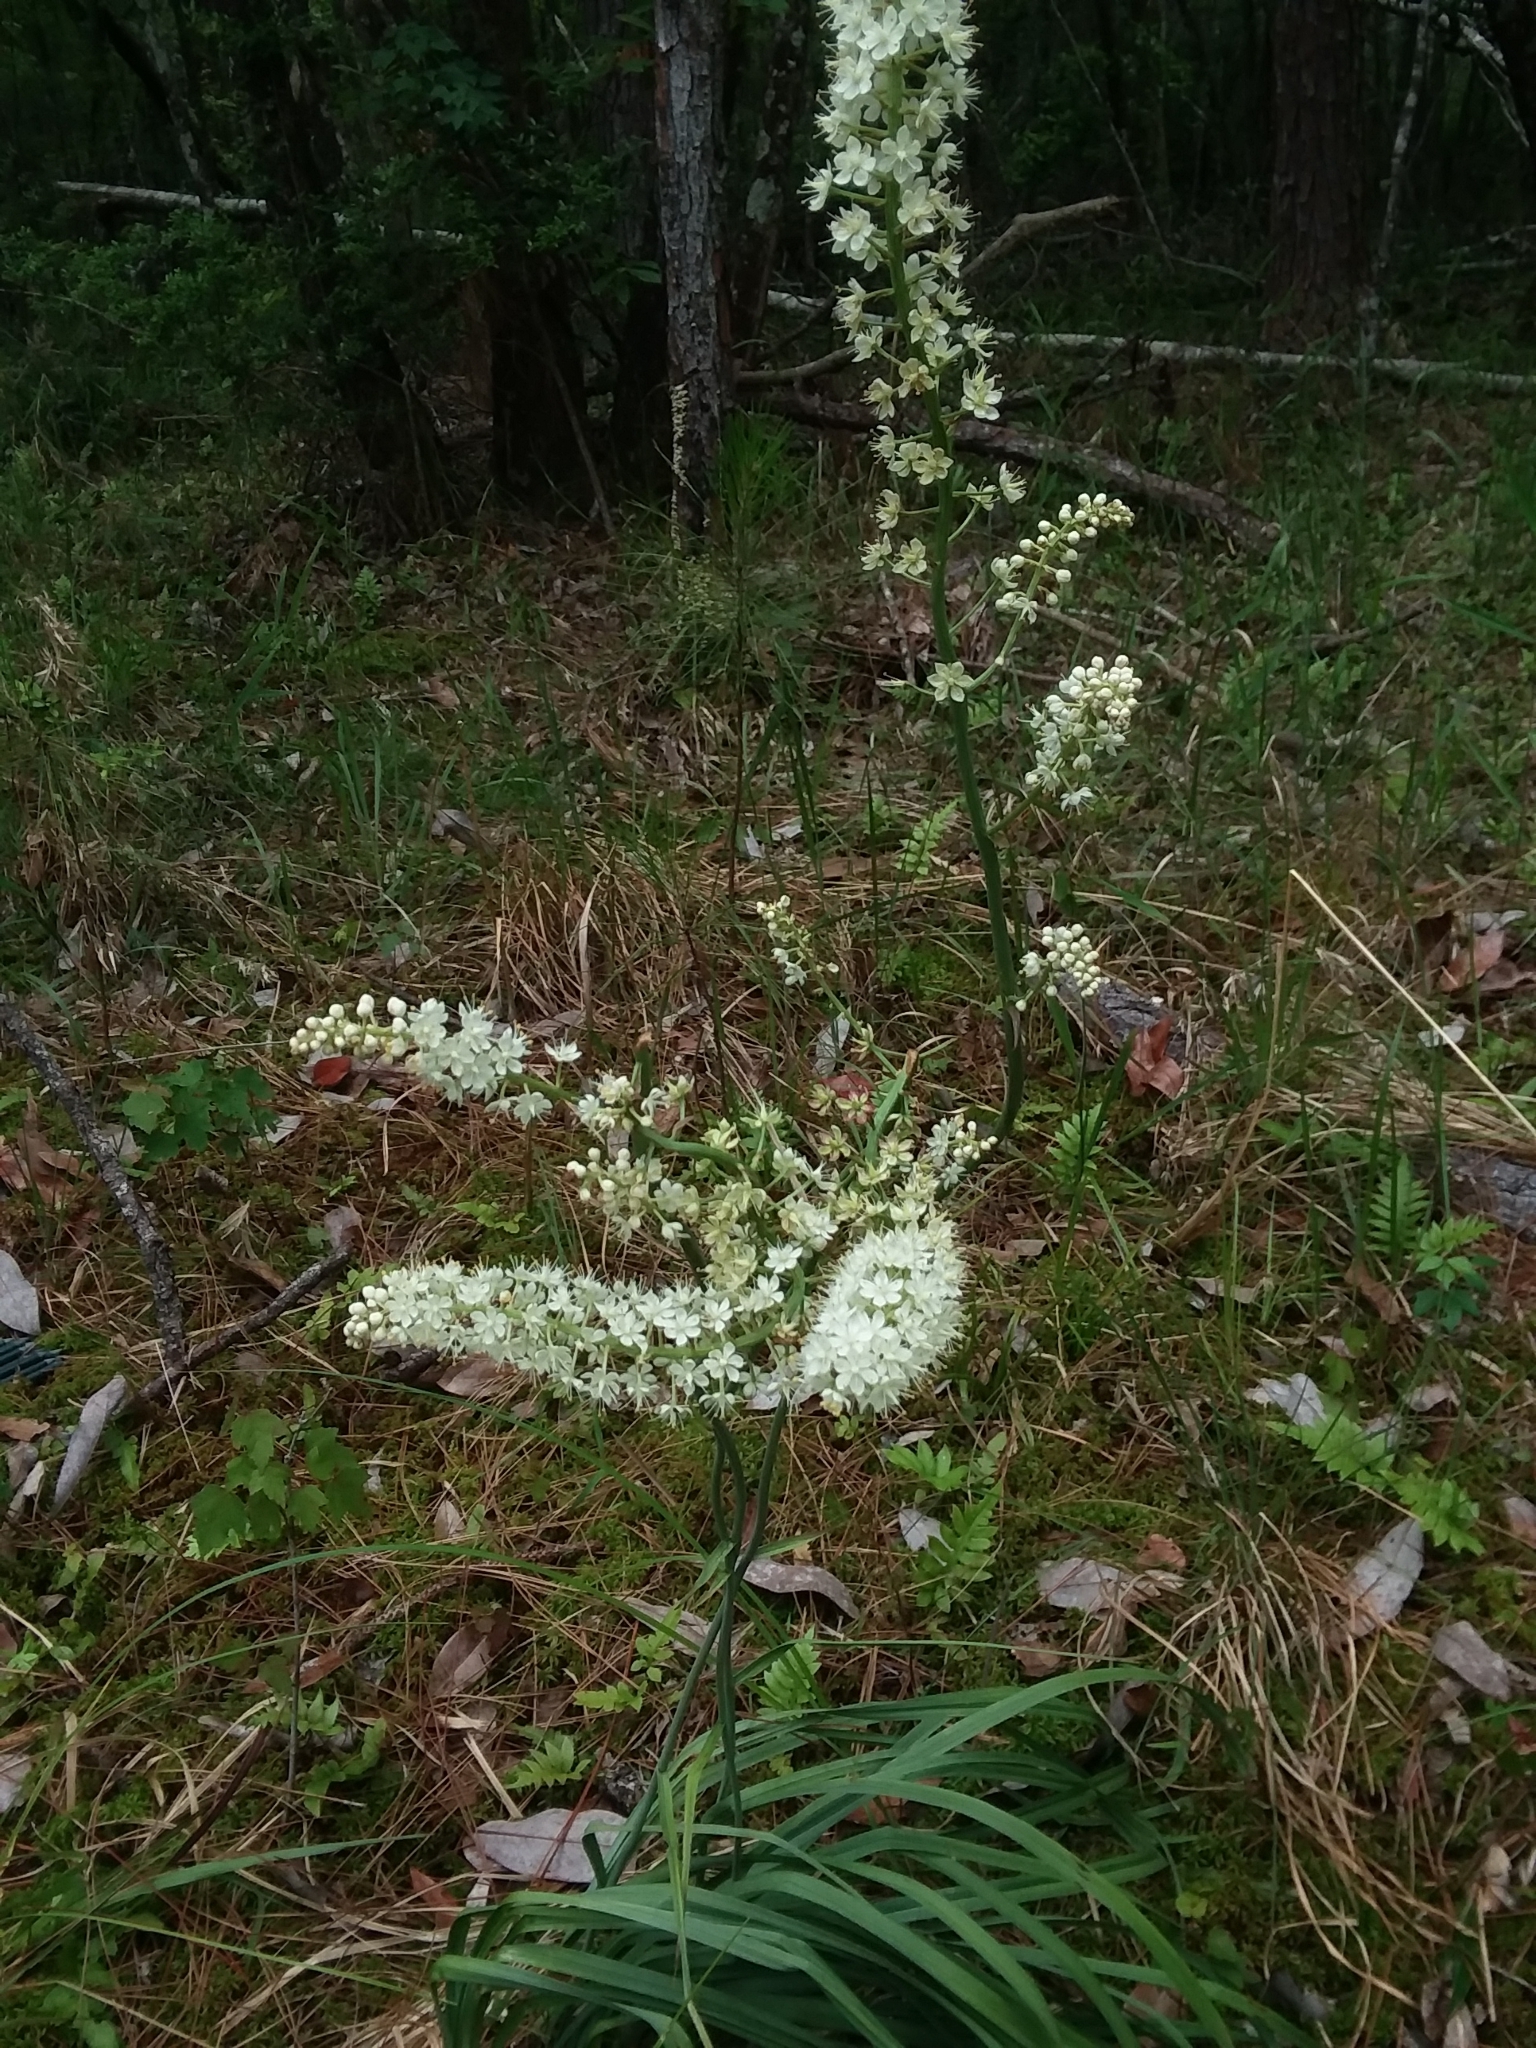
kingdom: Plantae
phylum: Tracheophyta
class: Liliopsida
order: Liliales
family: Melanthiaceae
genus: Stenanthium
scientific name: Stenanthium texanum
